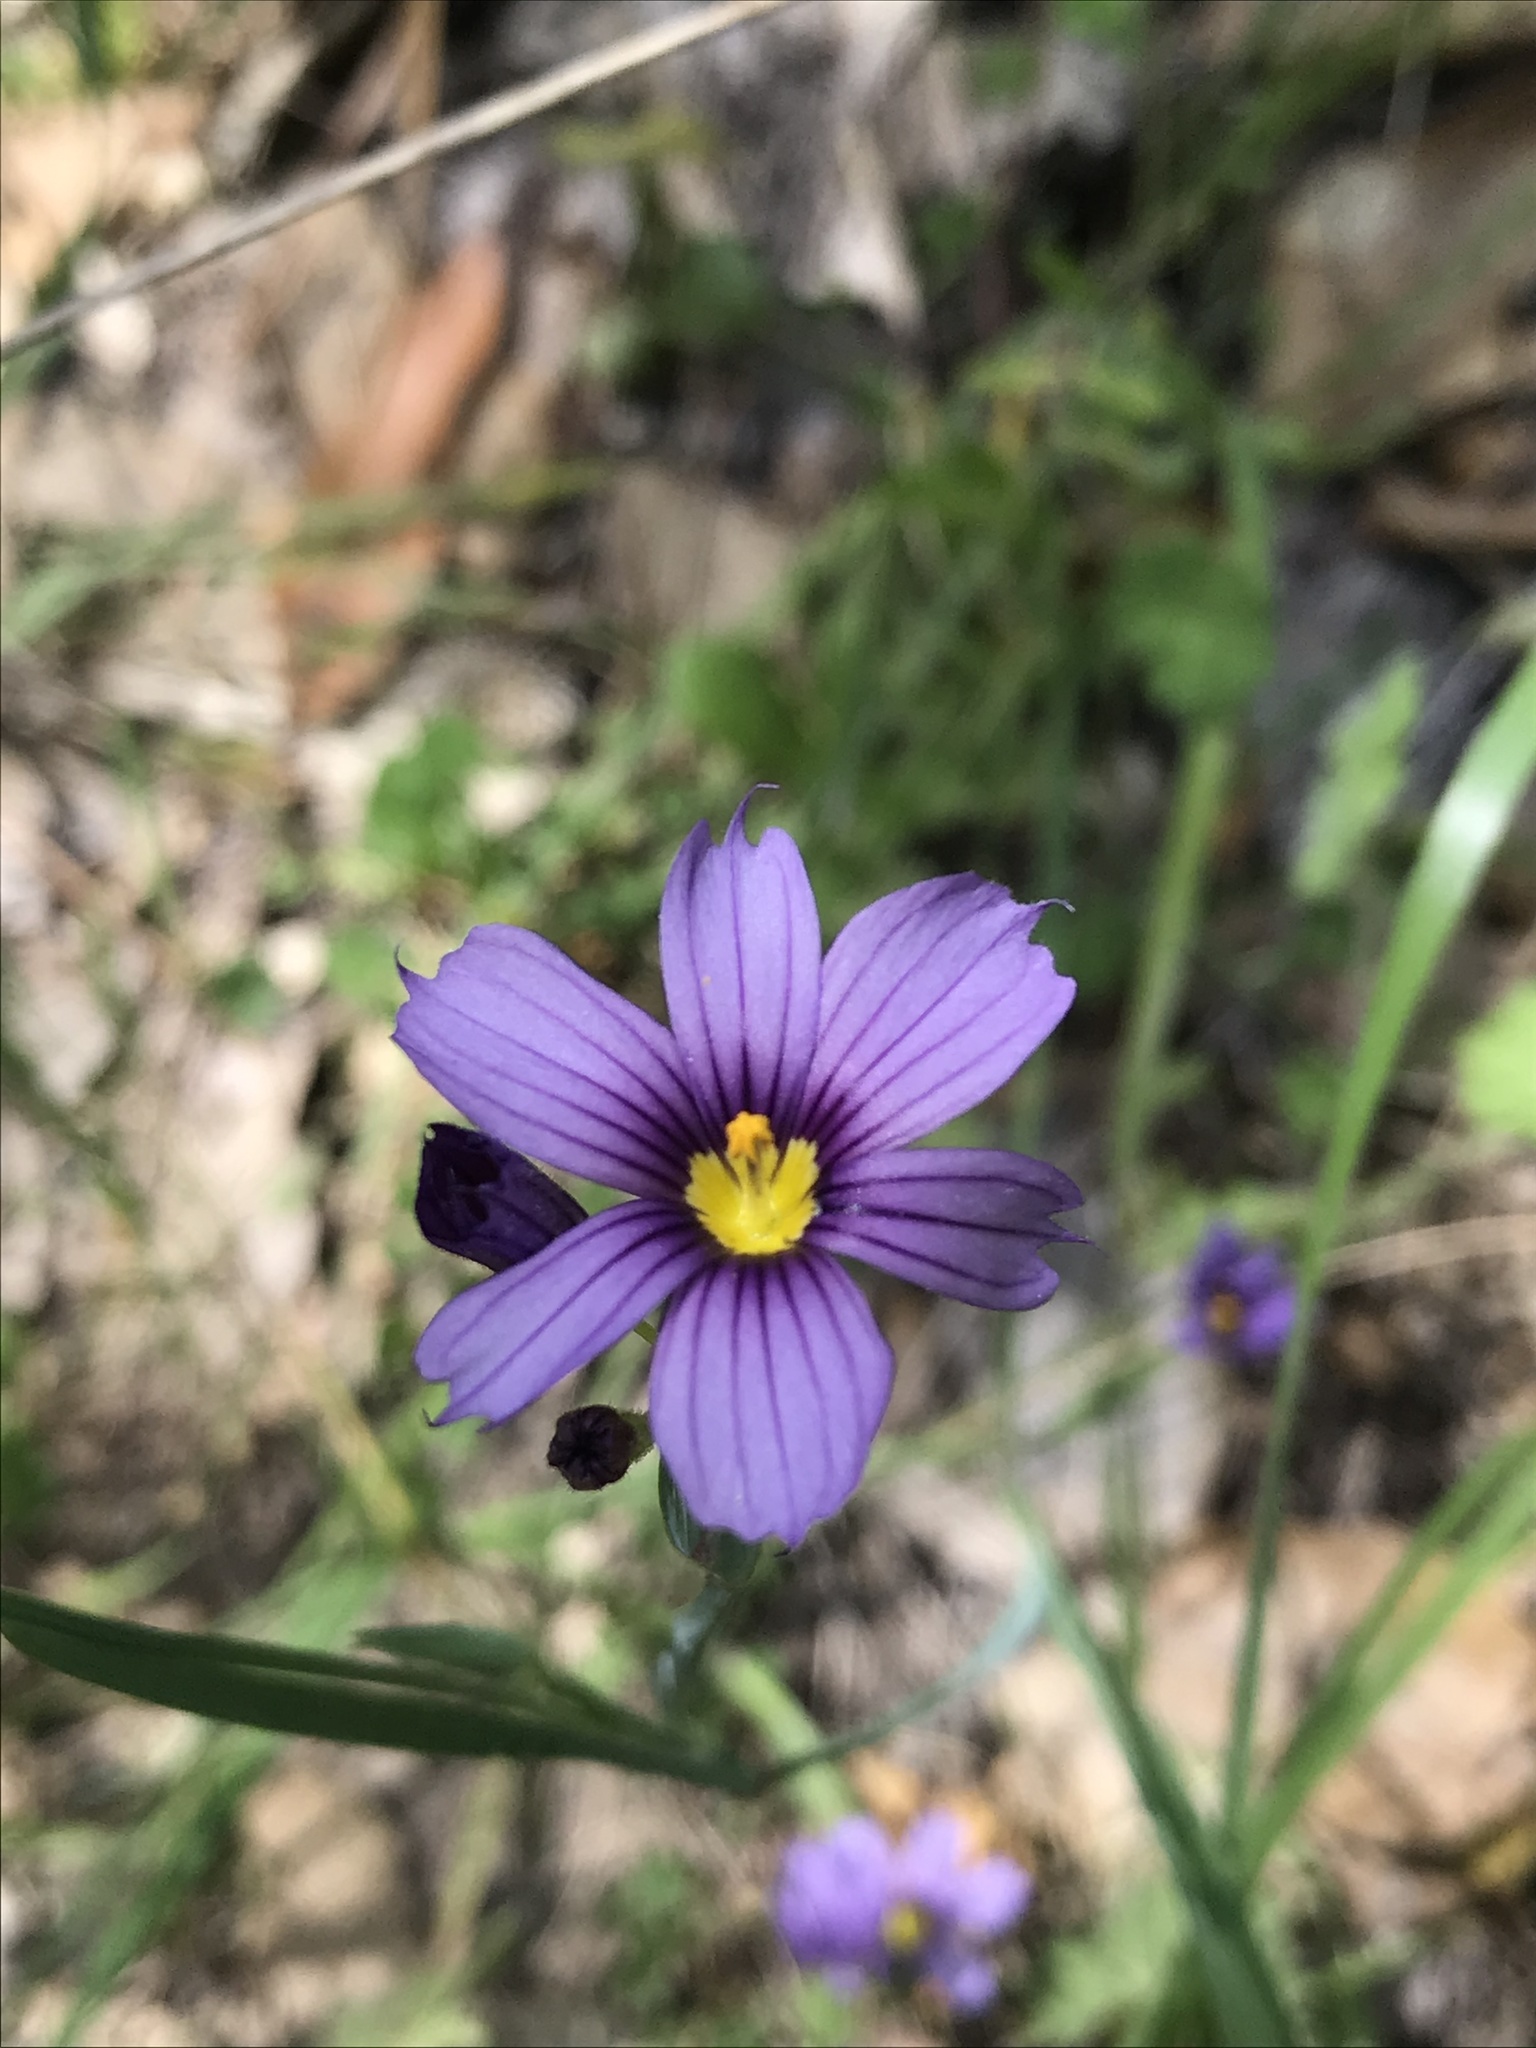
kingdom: Plantae
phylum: Tracheophyta
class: Liliopsida
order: Asparagales
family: Iridaceae
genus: Sisyrinchium
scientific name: Sisyrinchium bellum
